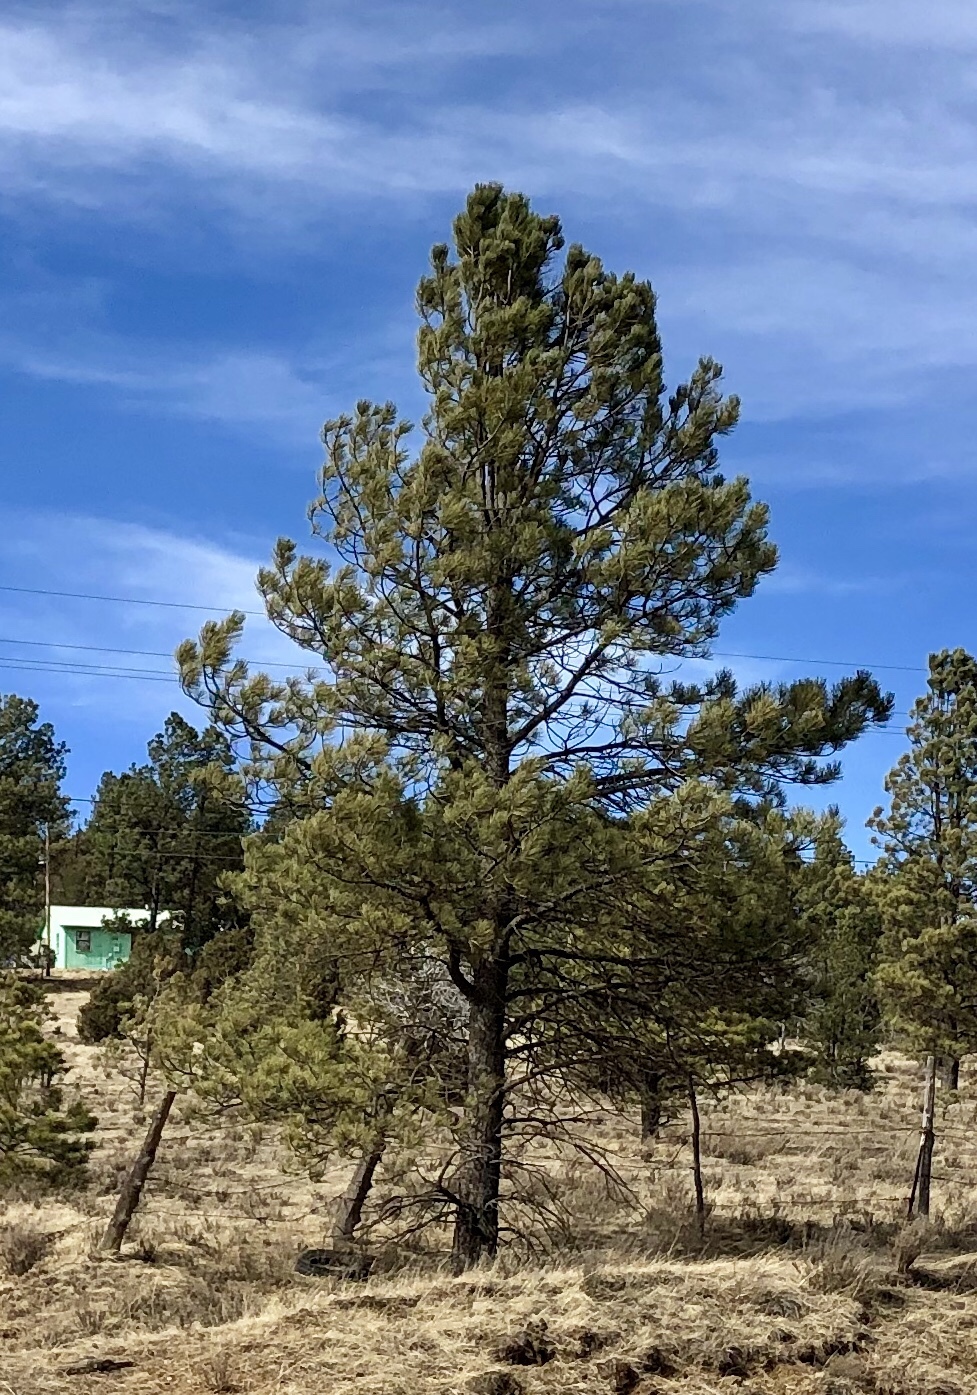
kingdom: Plantae
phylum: Tracheophyta
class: Pinopsida
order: Pinales
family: Pinaceae
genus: Pinus
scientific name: Pinus ponderosa
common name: Western yellow-pine
